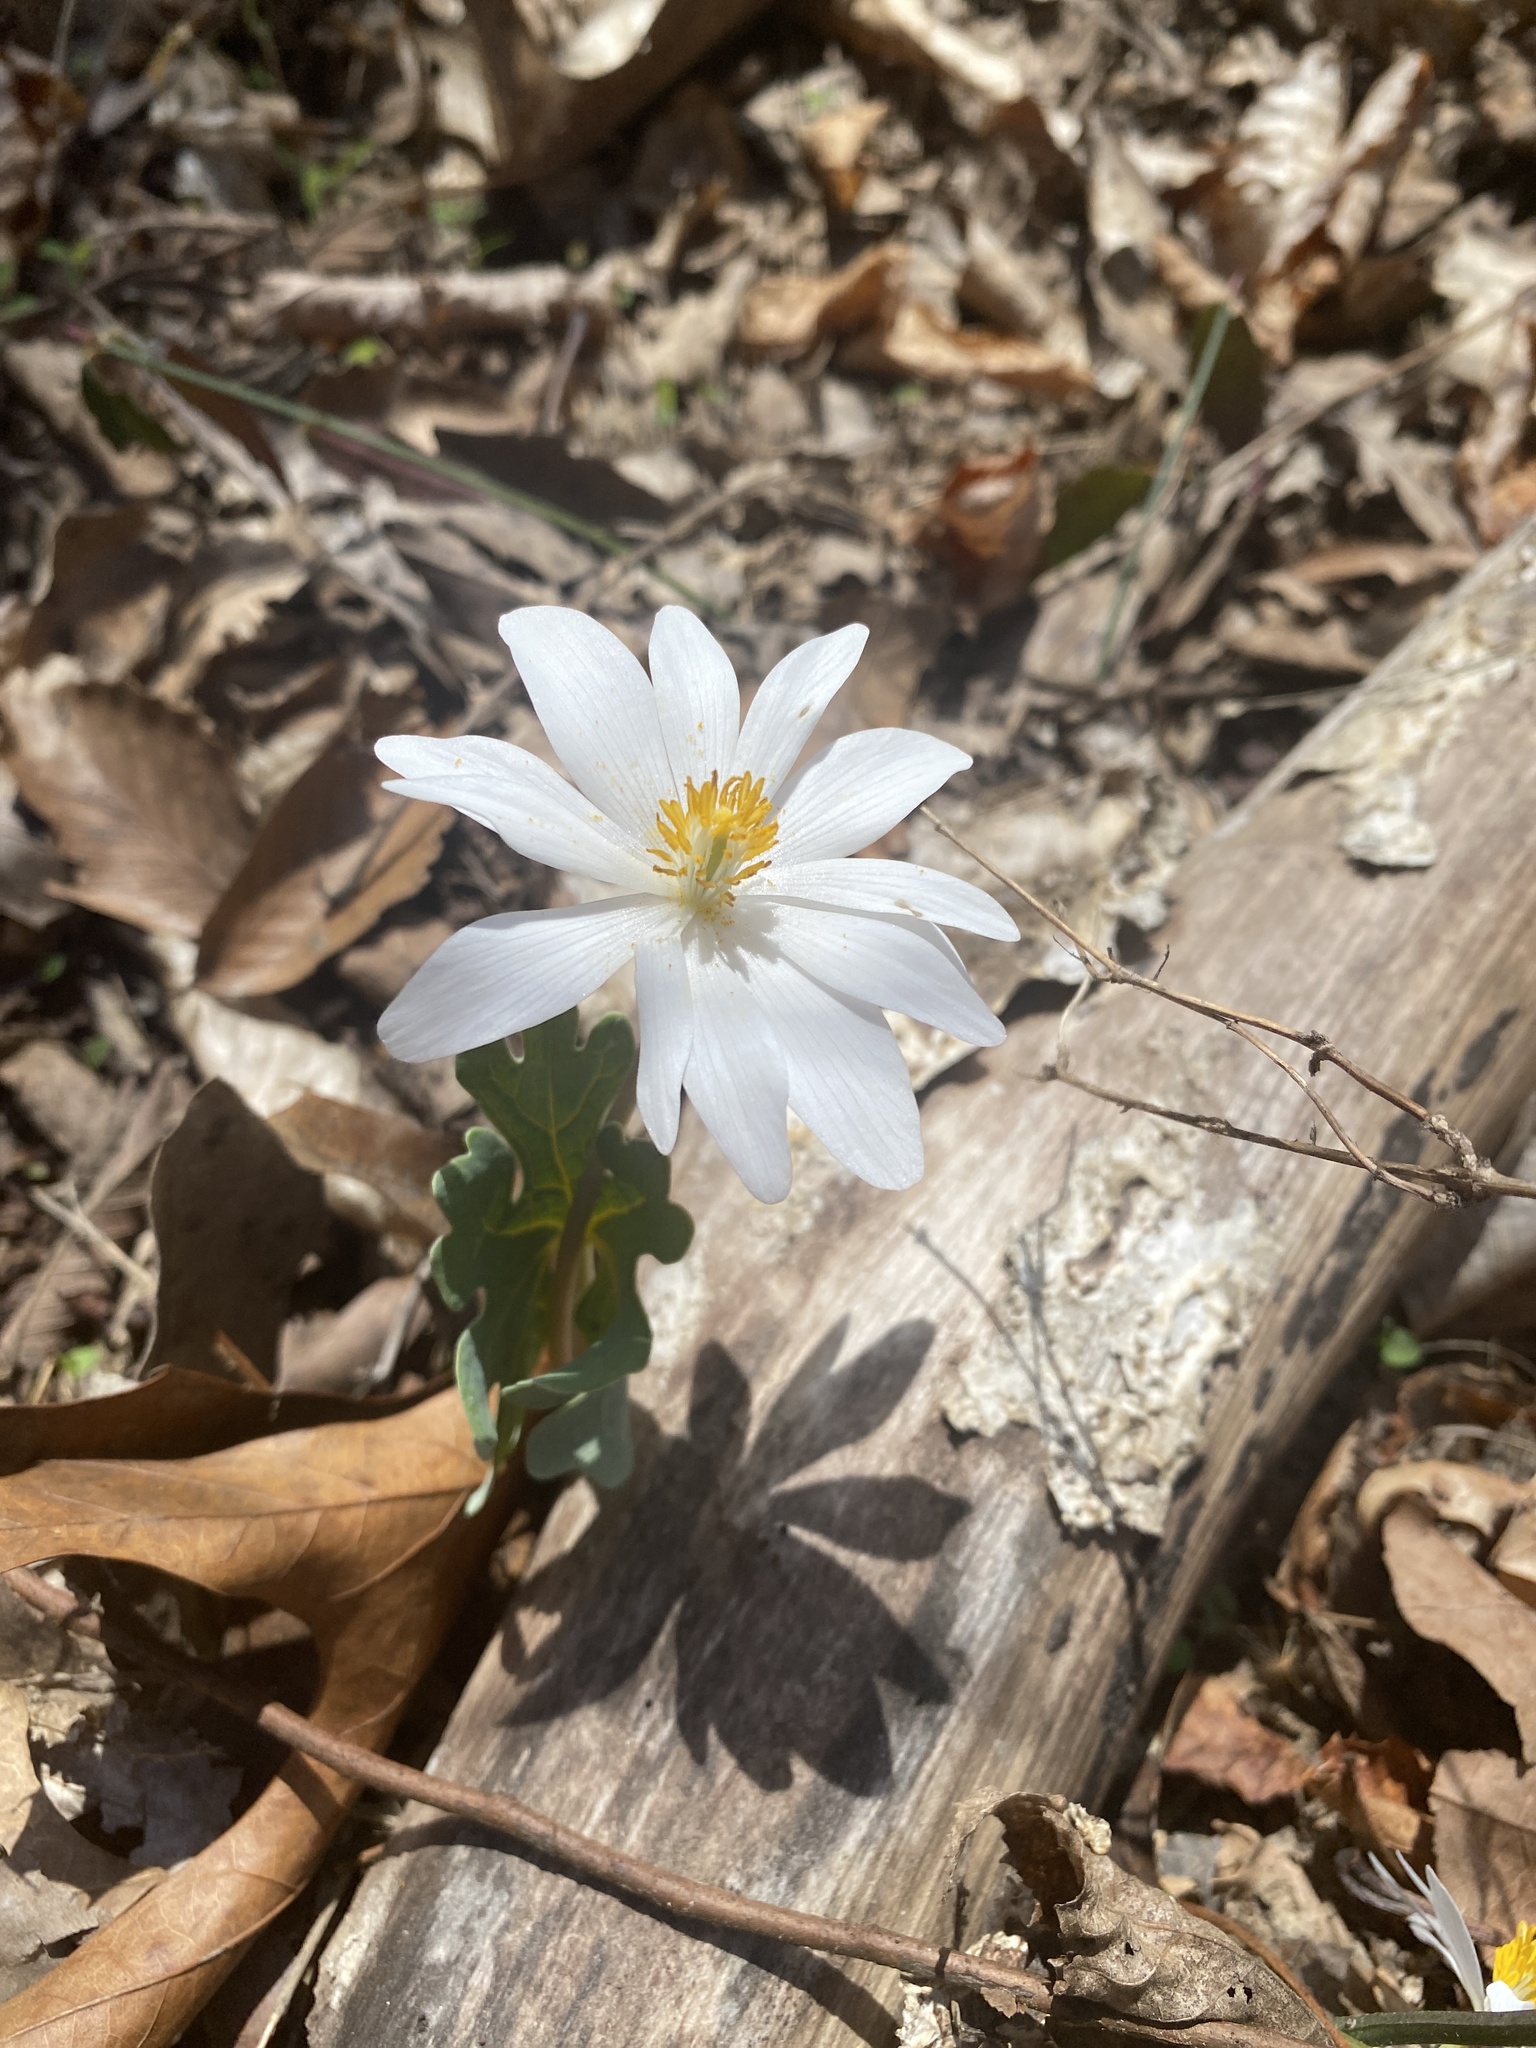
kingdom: Plantae
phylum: Tracheophyta
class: Magnoliopsida
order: Ranunculales
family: Papaveraceae
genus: Sanguinaria
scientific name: Sanguinaria canadensis
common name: Bloodroot
